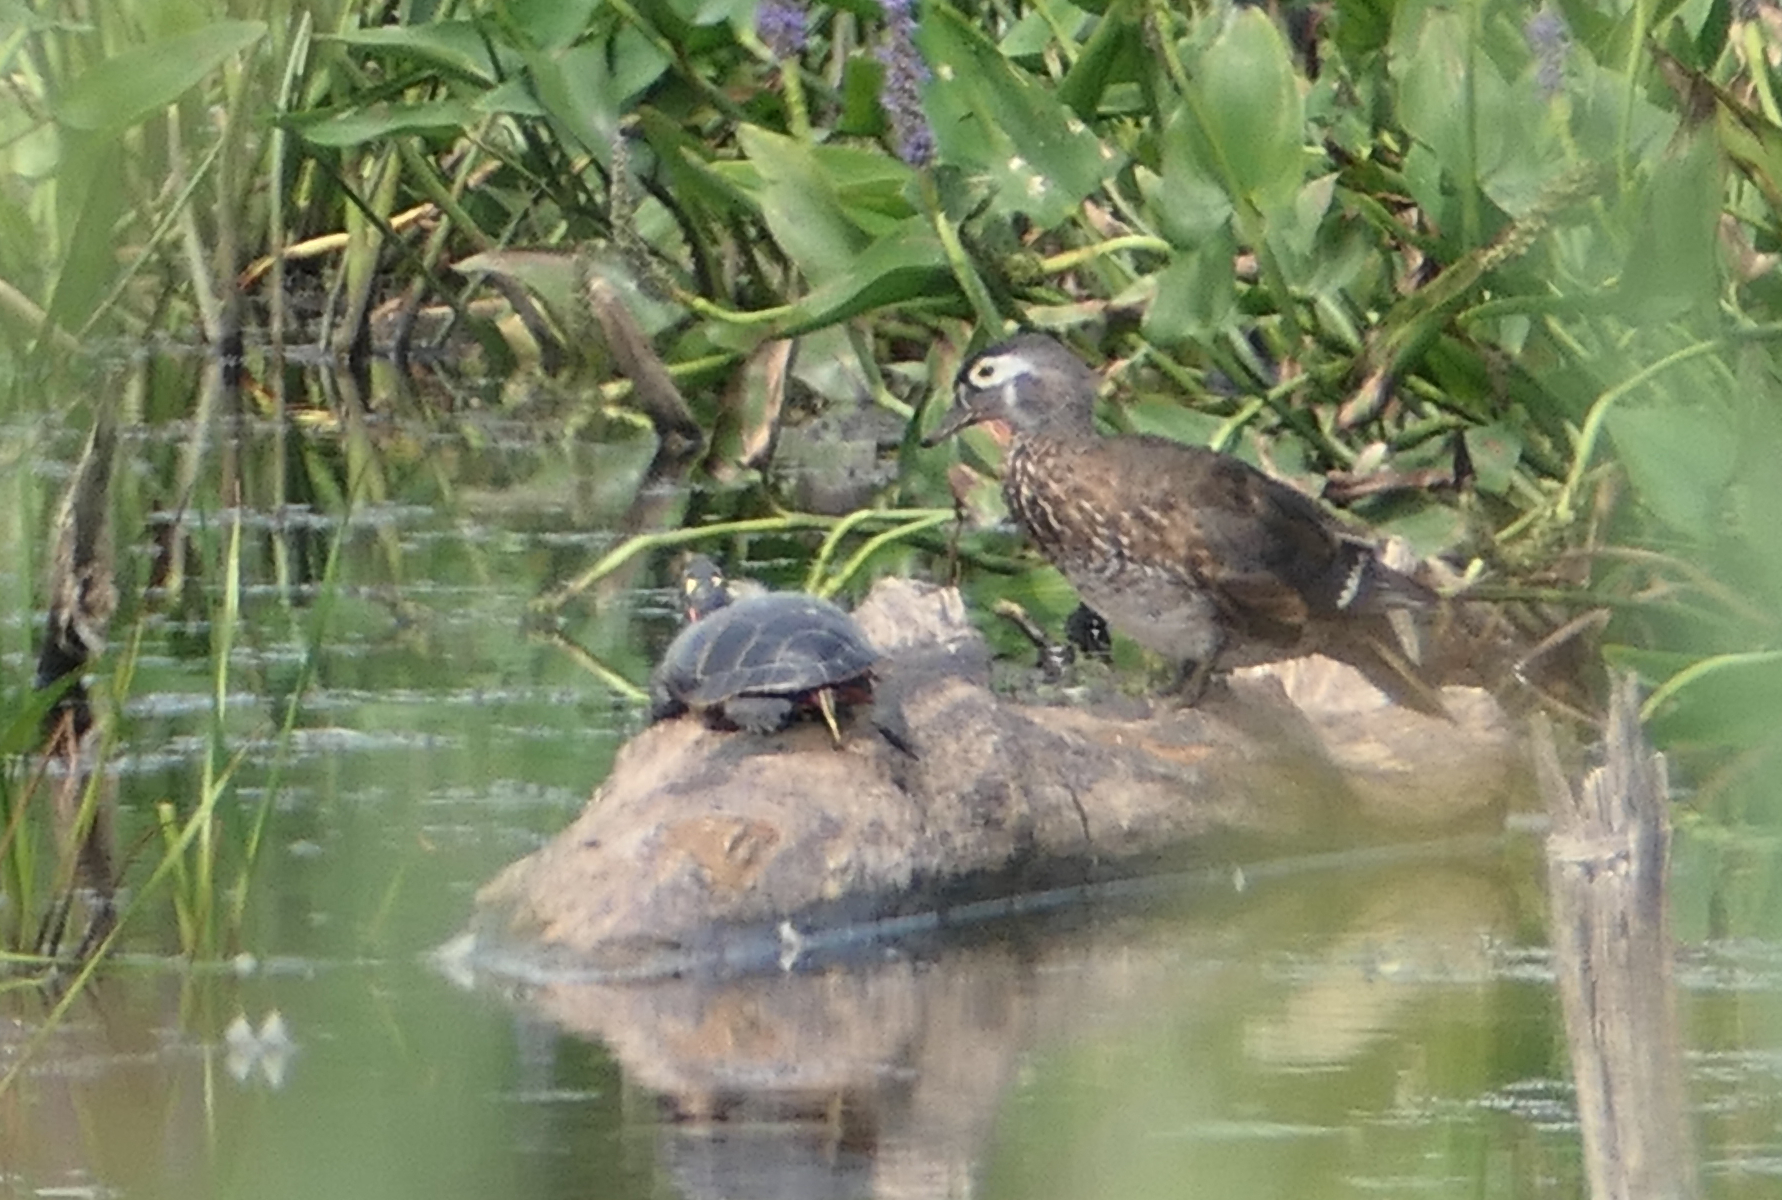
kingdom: Animalia
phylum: Chordata
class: Testudines
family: Emydidae
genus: Chrysemys
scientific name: Chrysemys picta
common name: Painted turtle
